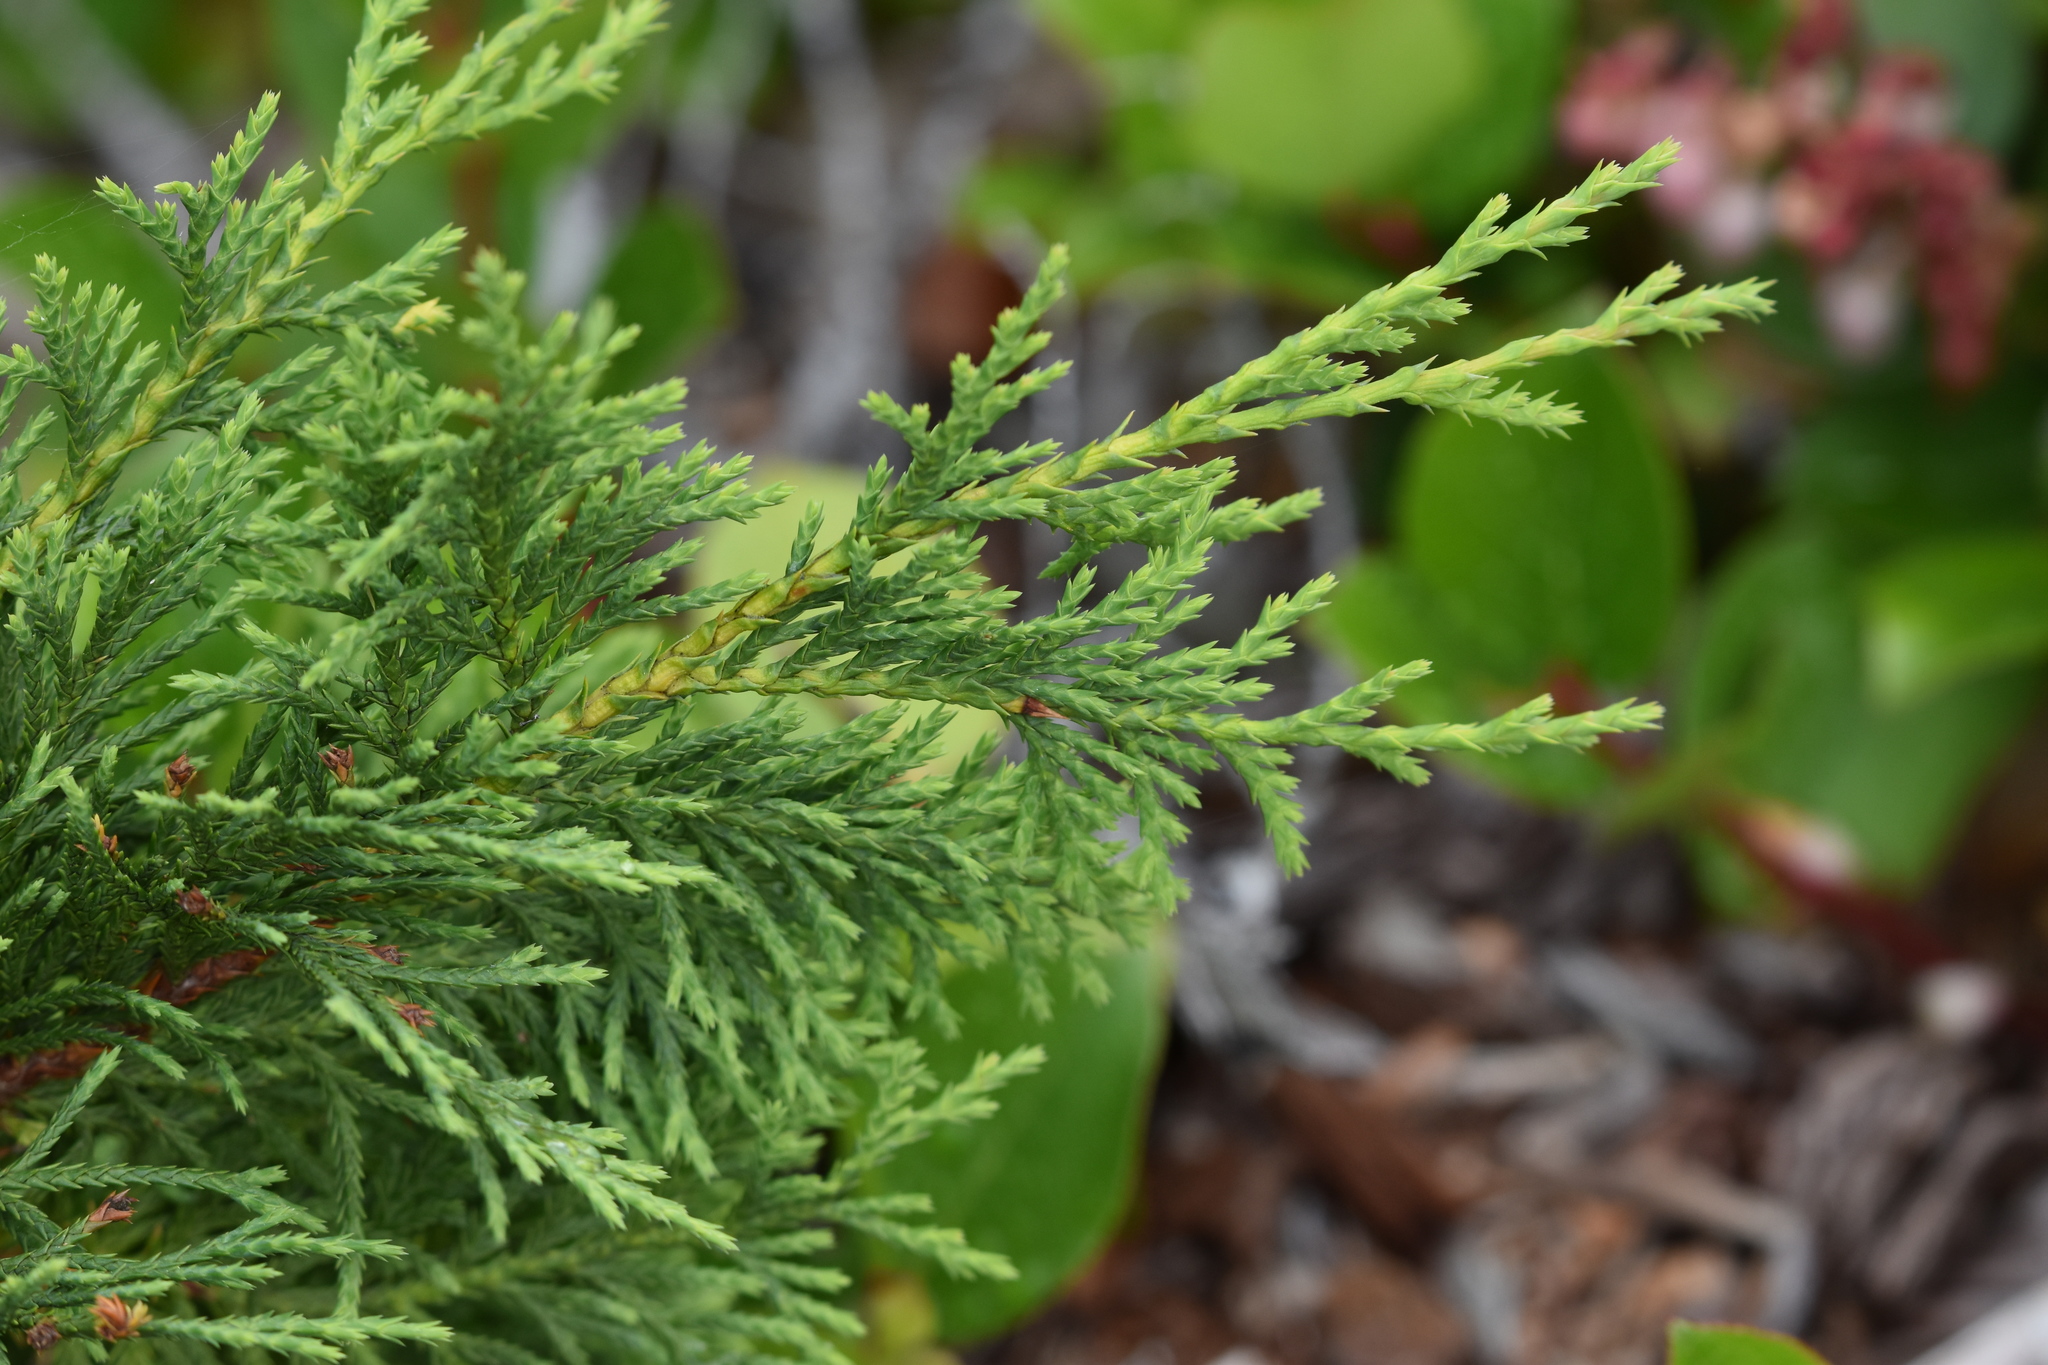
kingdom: Plantae
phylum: Tracheophyta
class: Pinopsida
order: Pinales
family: Cupressaceae
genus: Xanthocyparis
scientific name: Xanthocyparis nootkatensis
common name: Nootka cypress
